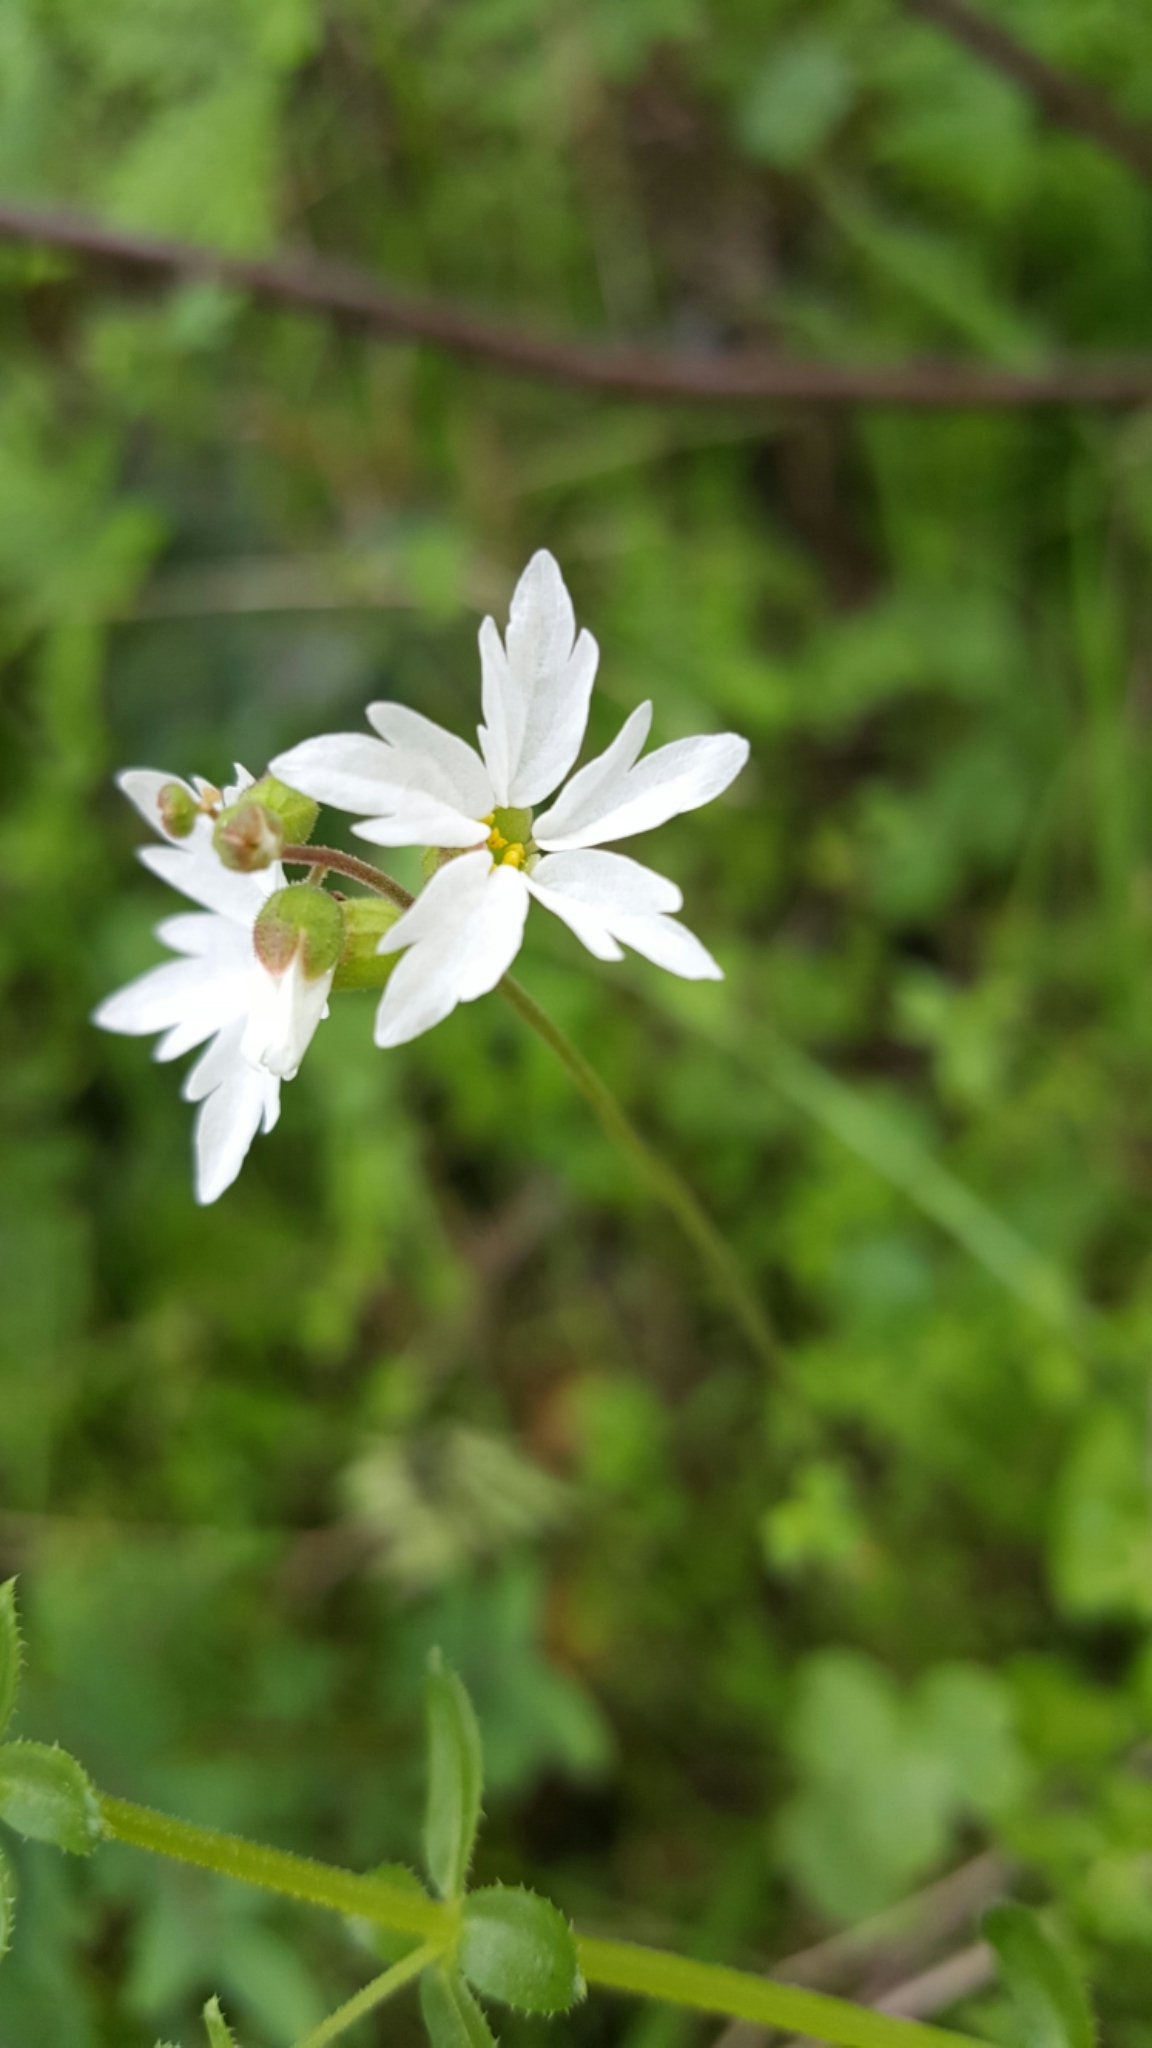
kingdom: Plantae
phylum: Tracheophyta
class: Magnoliopsida
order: Saxifragales
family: Saxifragaceae
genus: Lithophragma
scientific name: Lithophragma affine
